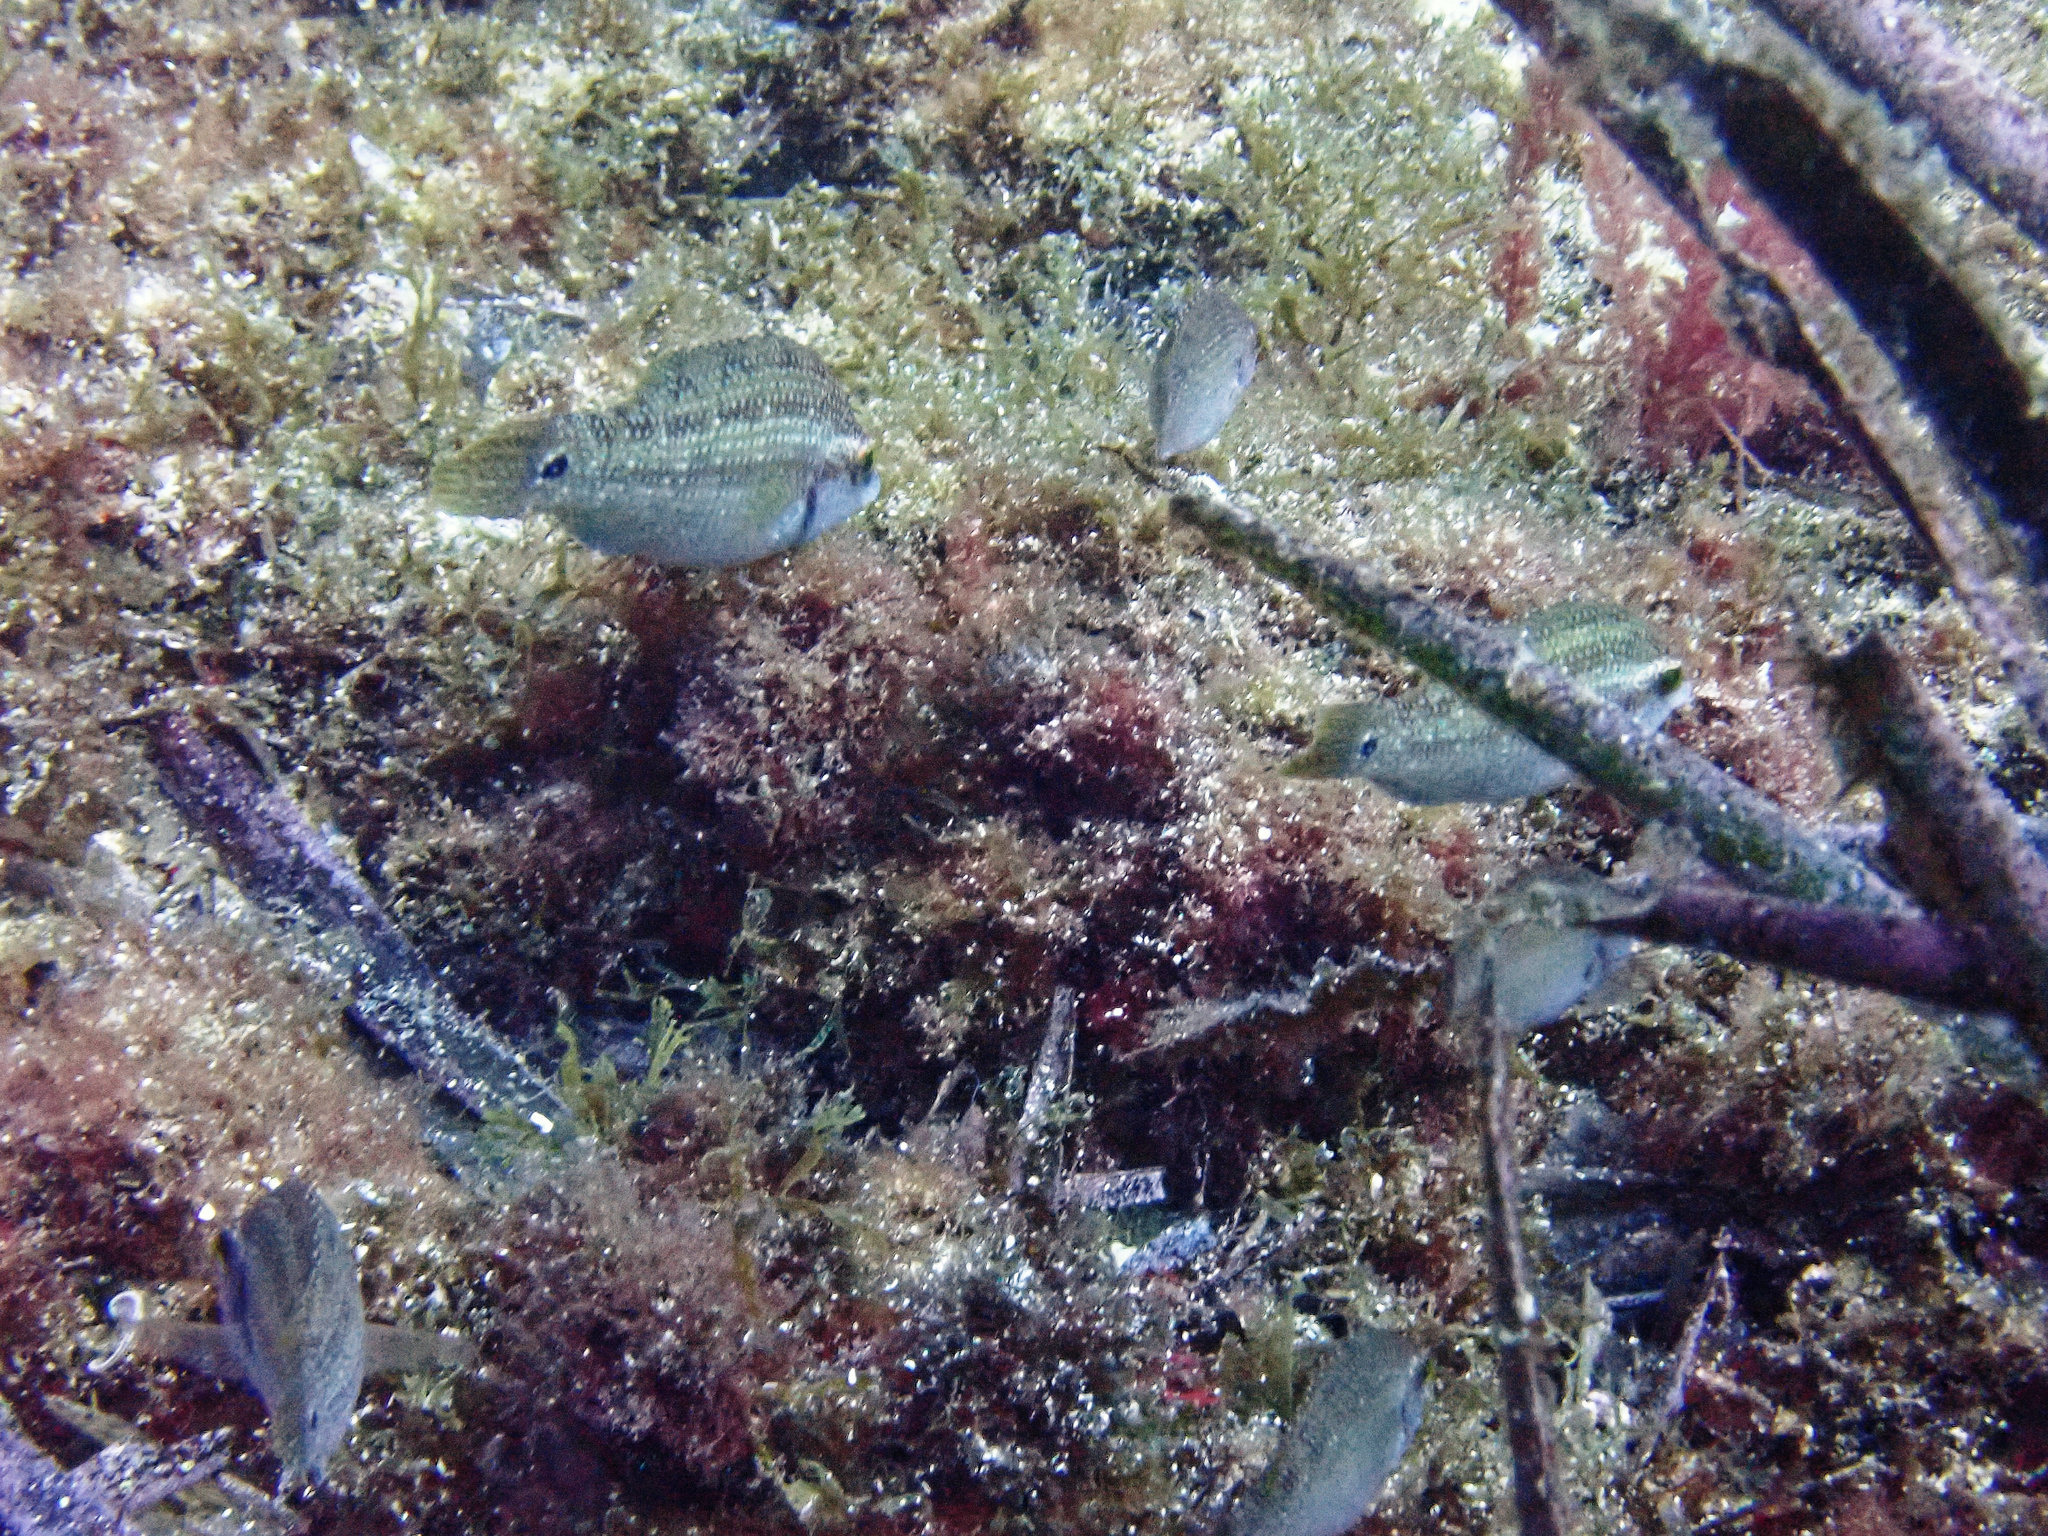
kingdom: Animalia
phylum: Chordata
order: Perciformes
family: Labridae
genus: Symphodus
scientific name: Symphodus tinca
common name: Peacock wrasse
